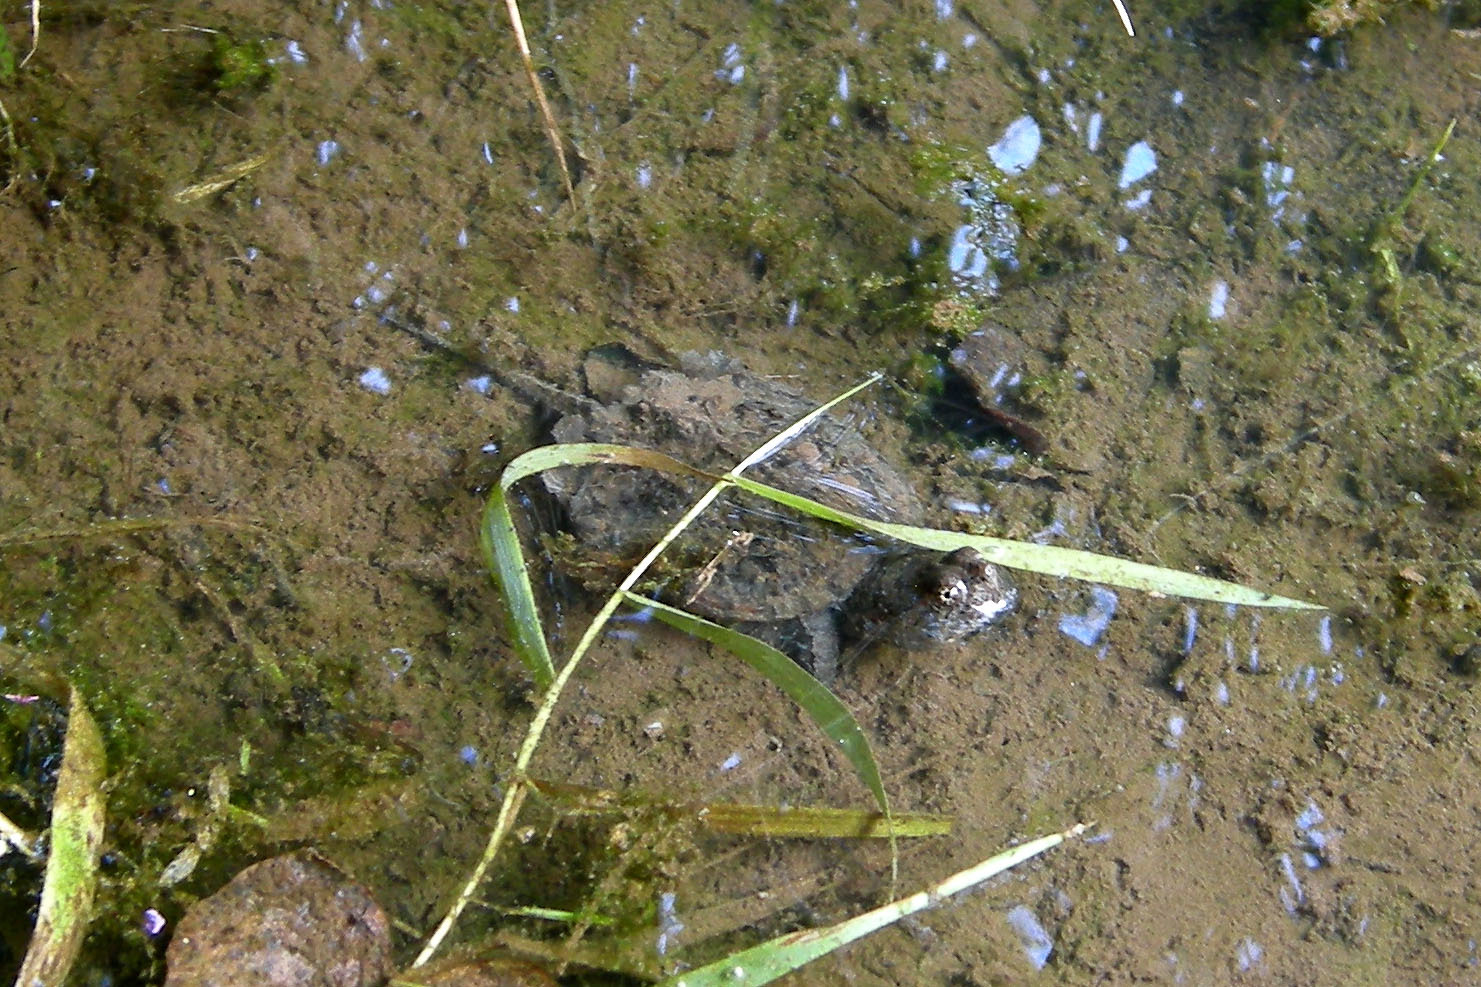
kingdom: Animalia
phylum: Chordata
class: Testudines
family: Chelydridae
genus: Chelydra
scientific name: Chelydra serpentina
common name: Common snapping turtle
